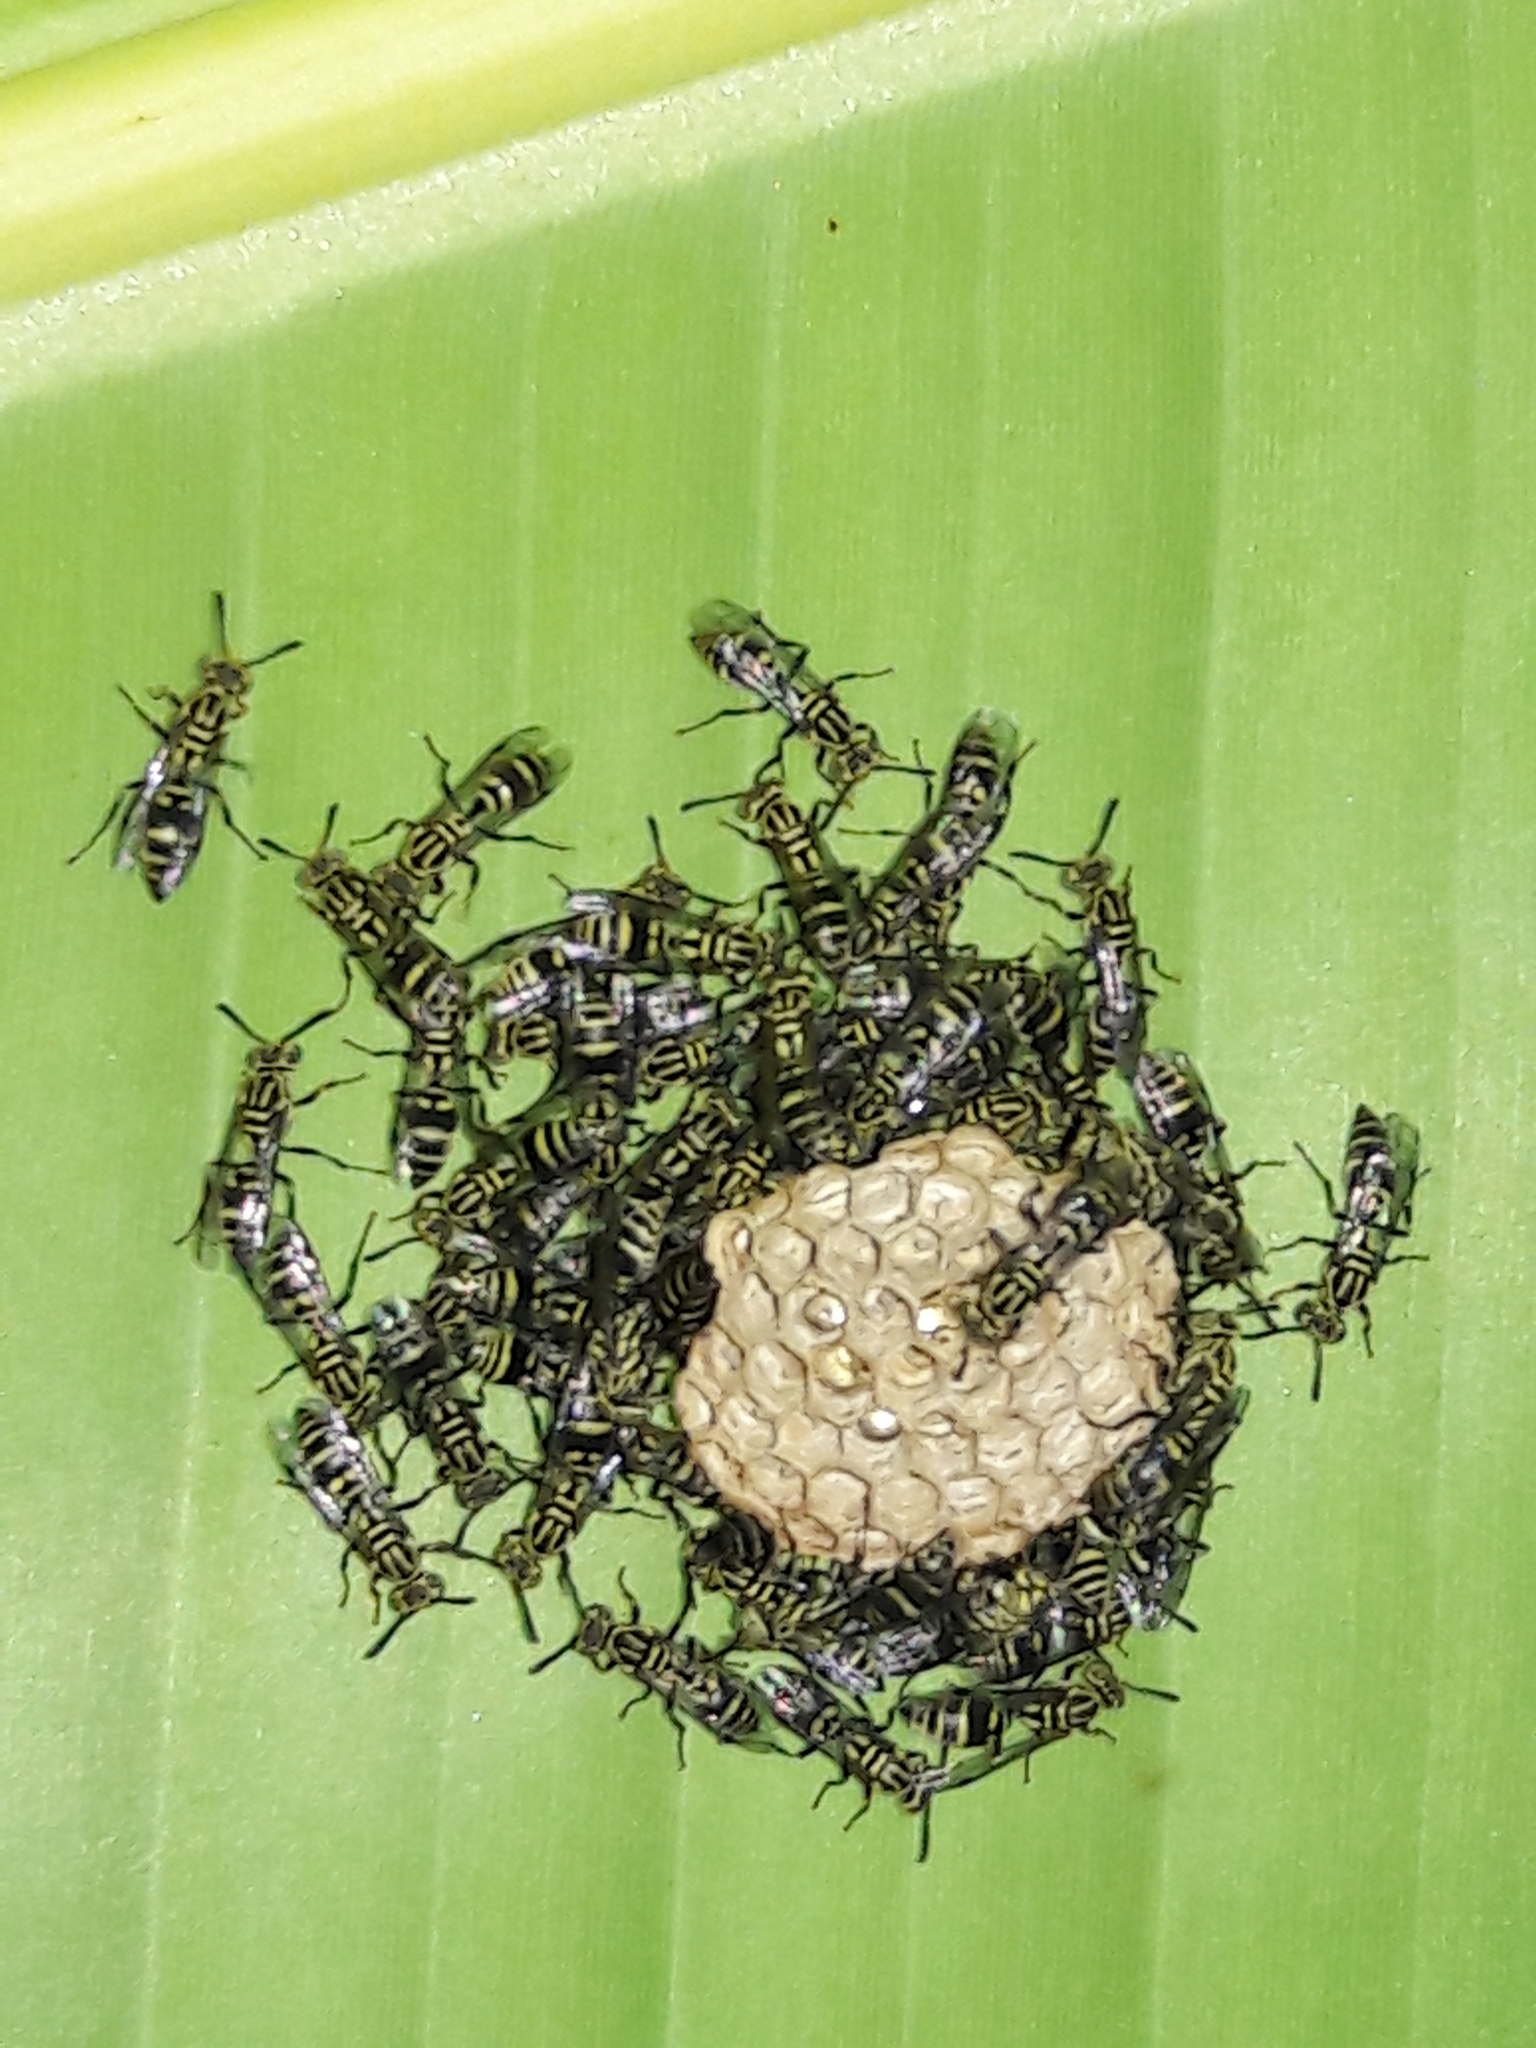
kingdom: Animalia
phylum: Arthropoda
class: Insecta
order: Hymenoptera
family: Vespidae
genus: Protopolybia
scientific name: Protopolybia exigua
